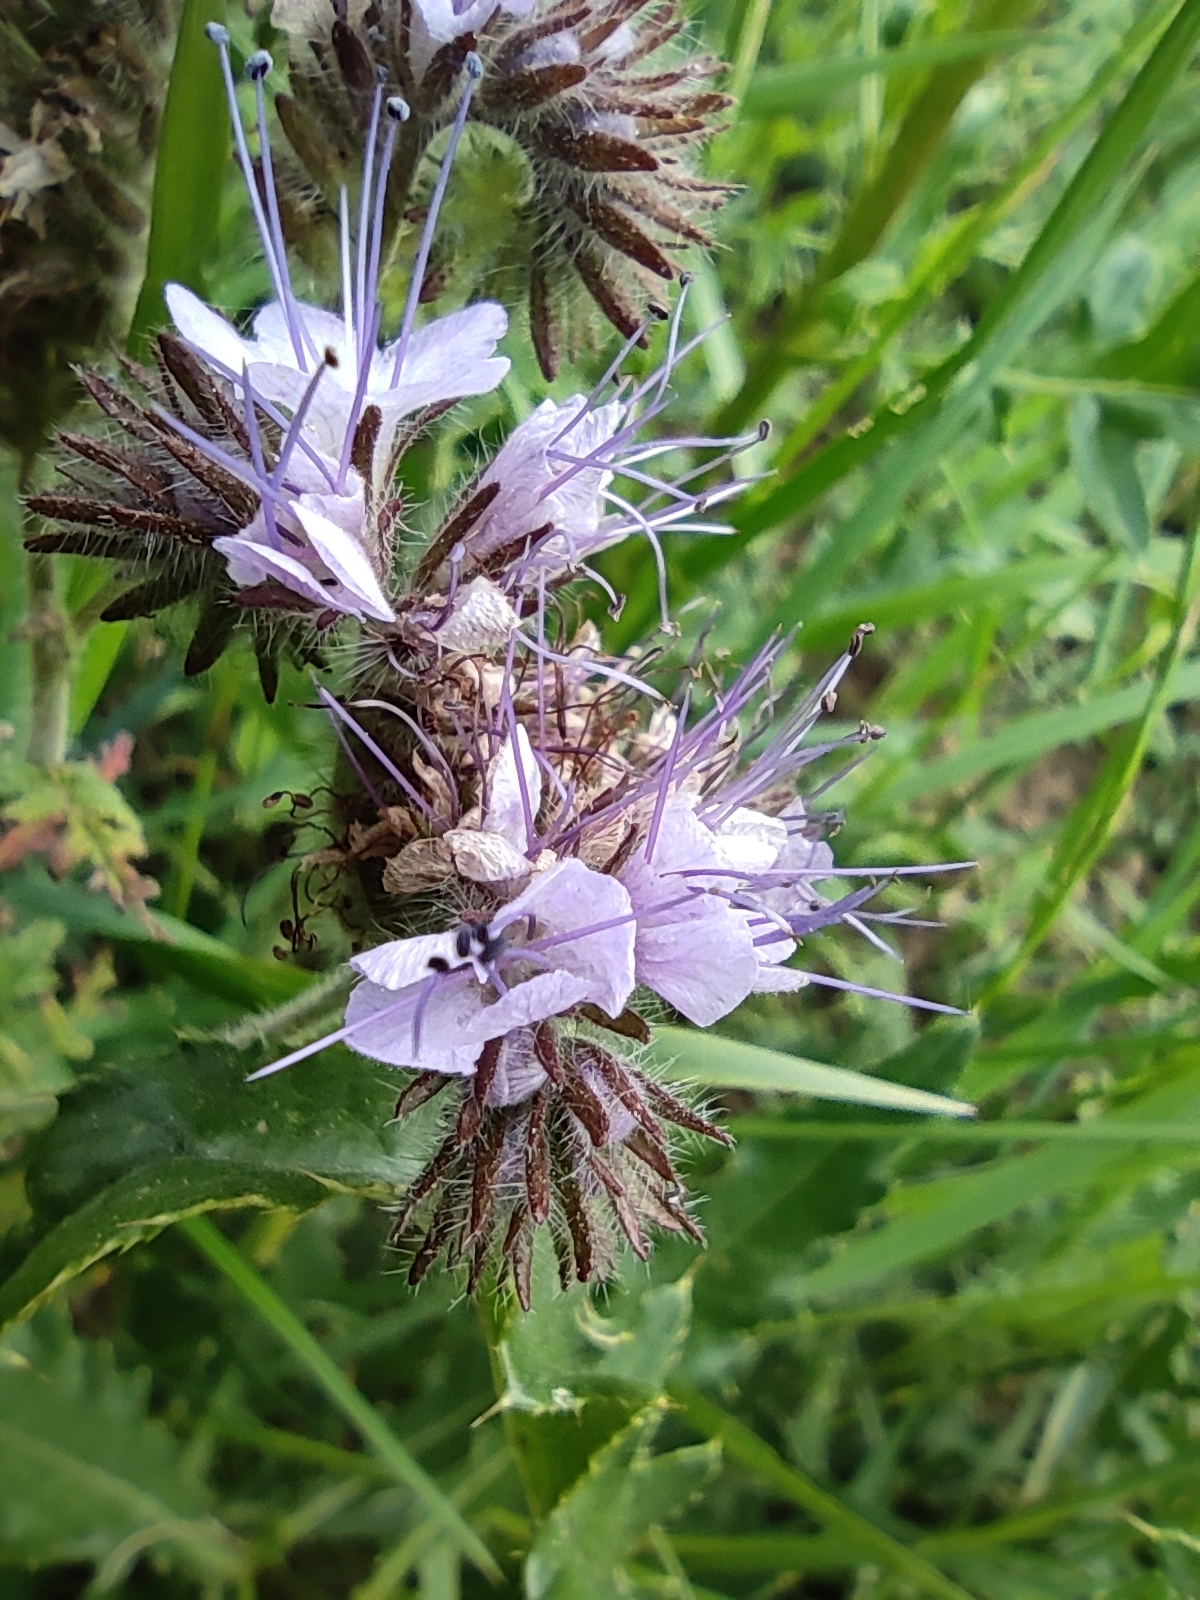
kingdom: Plantae
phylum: Tracheophyta
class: Magnoliopsida
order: Boraginales
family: Hydrophyllaceae
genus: Phacelia
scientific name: Phacelia tanacetifolia
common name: Phacelia
